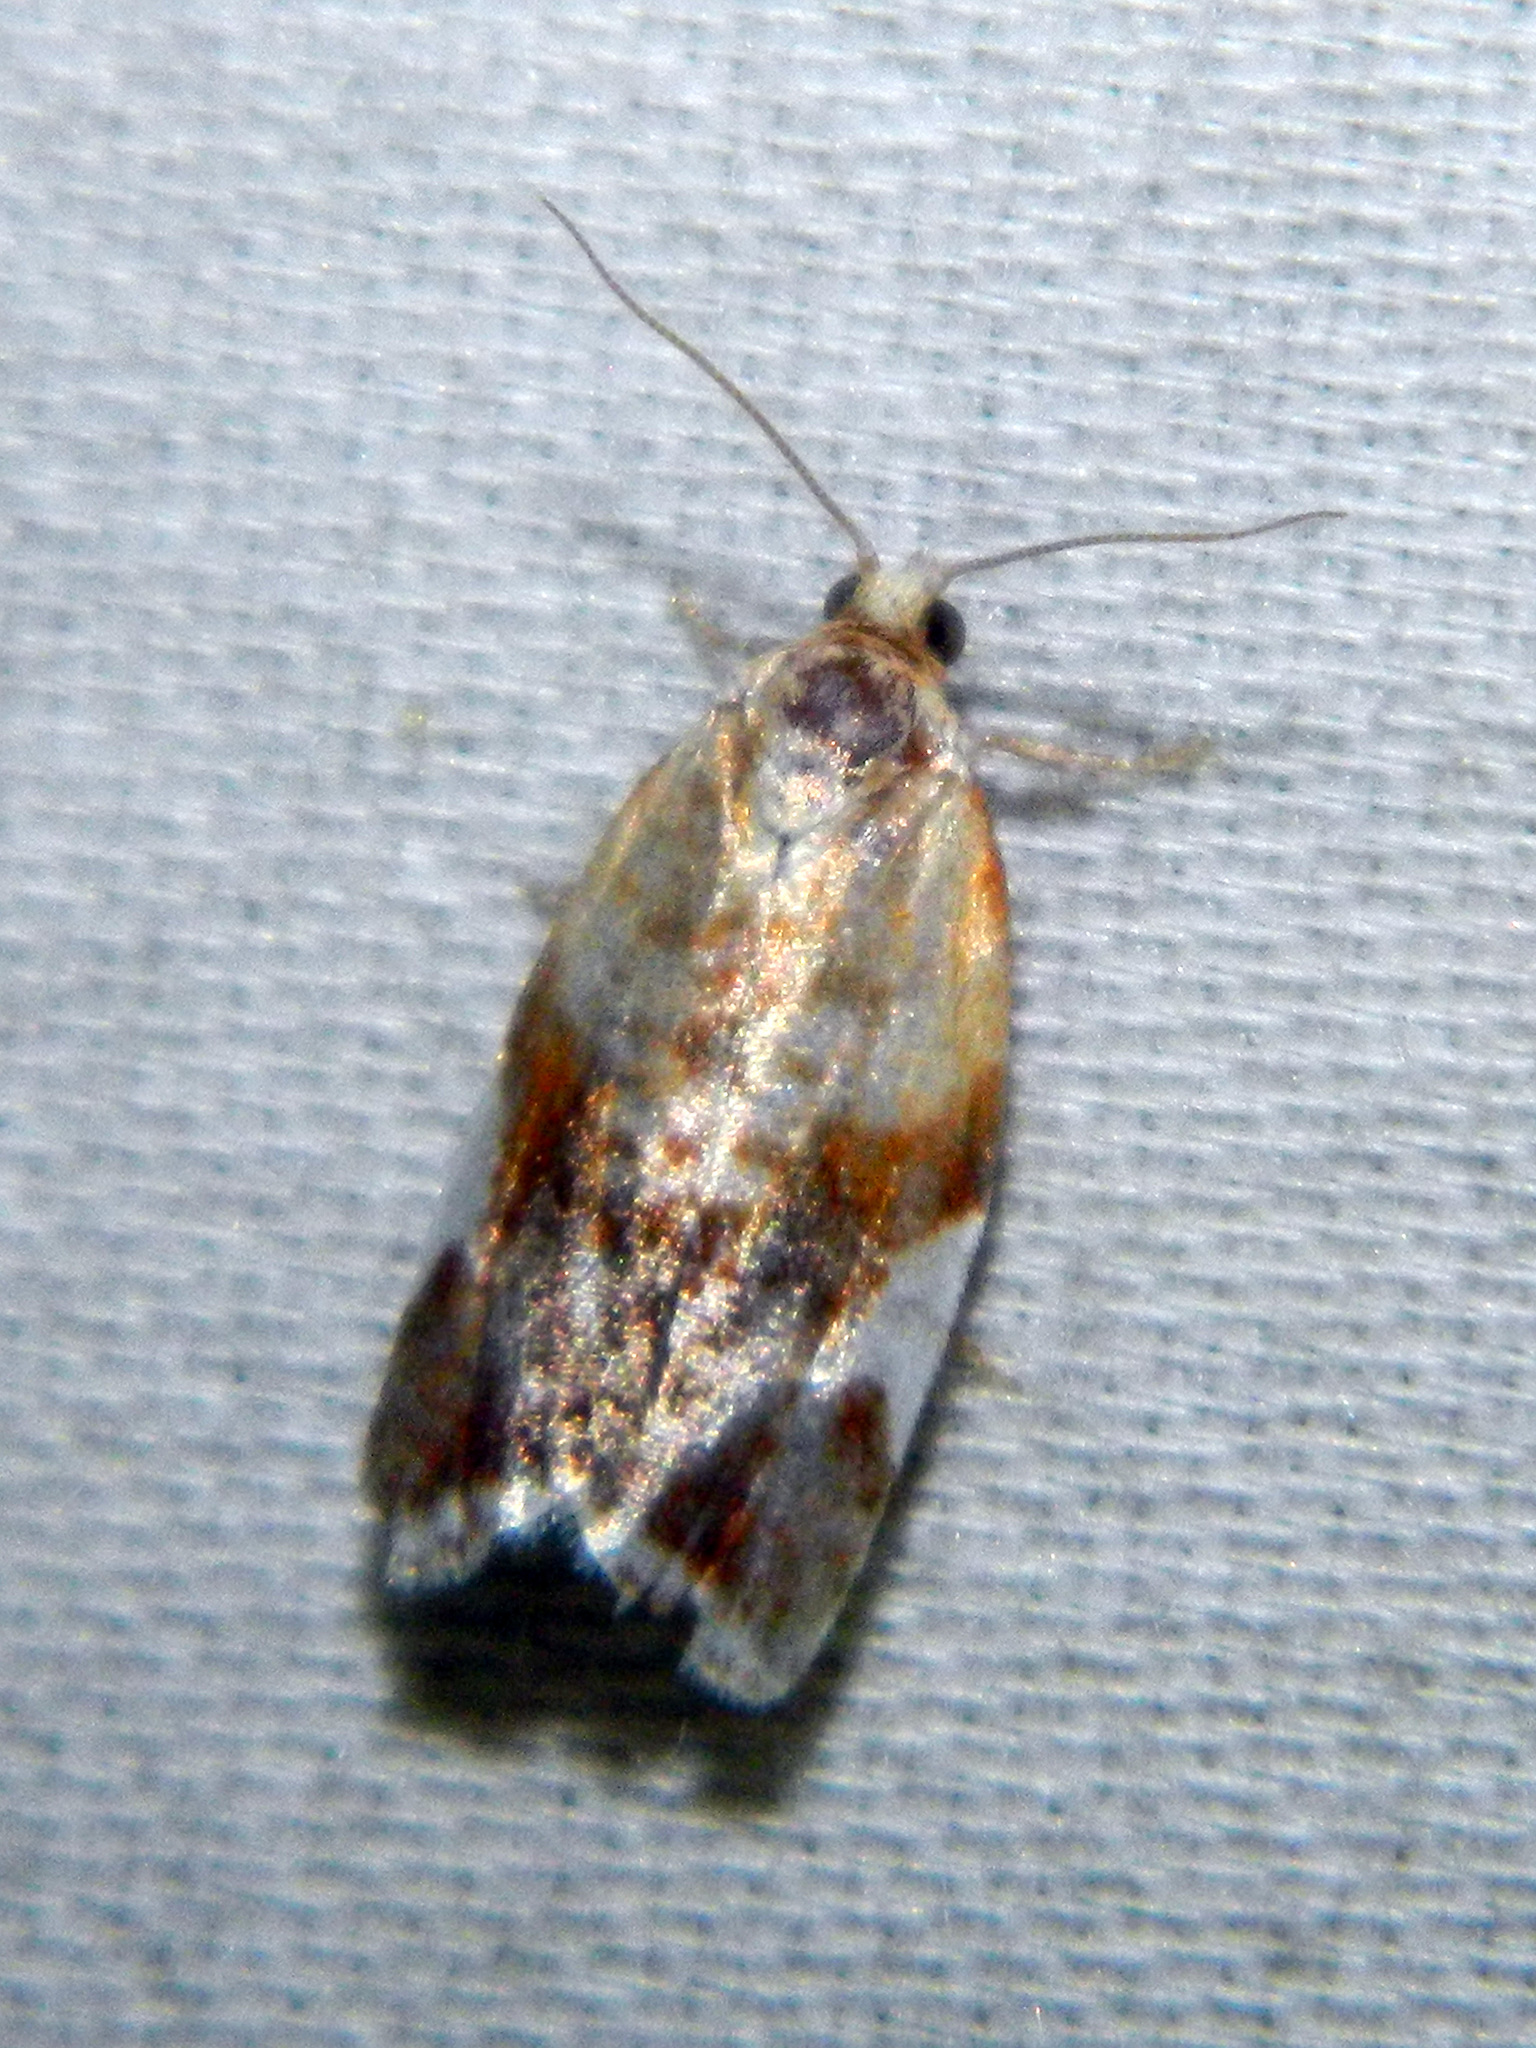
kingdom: Animalia
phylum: Arthropoda
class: Insecta
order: Lepidoptera
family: Tortricidae
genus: Clepsis
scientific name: Clepsis persicana
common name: White triangle tortrix
